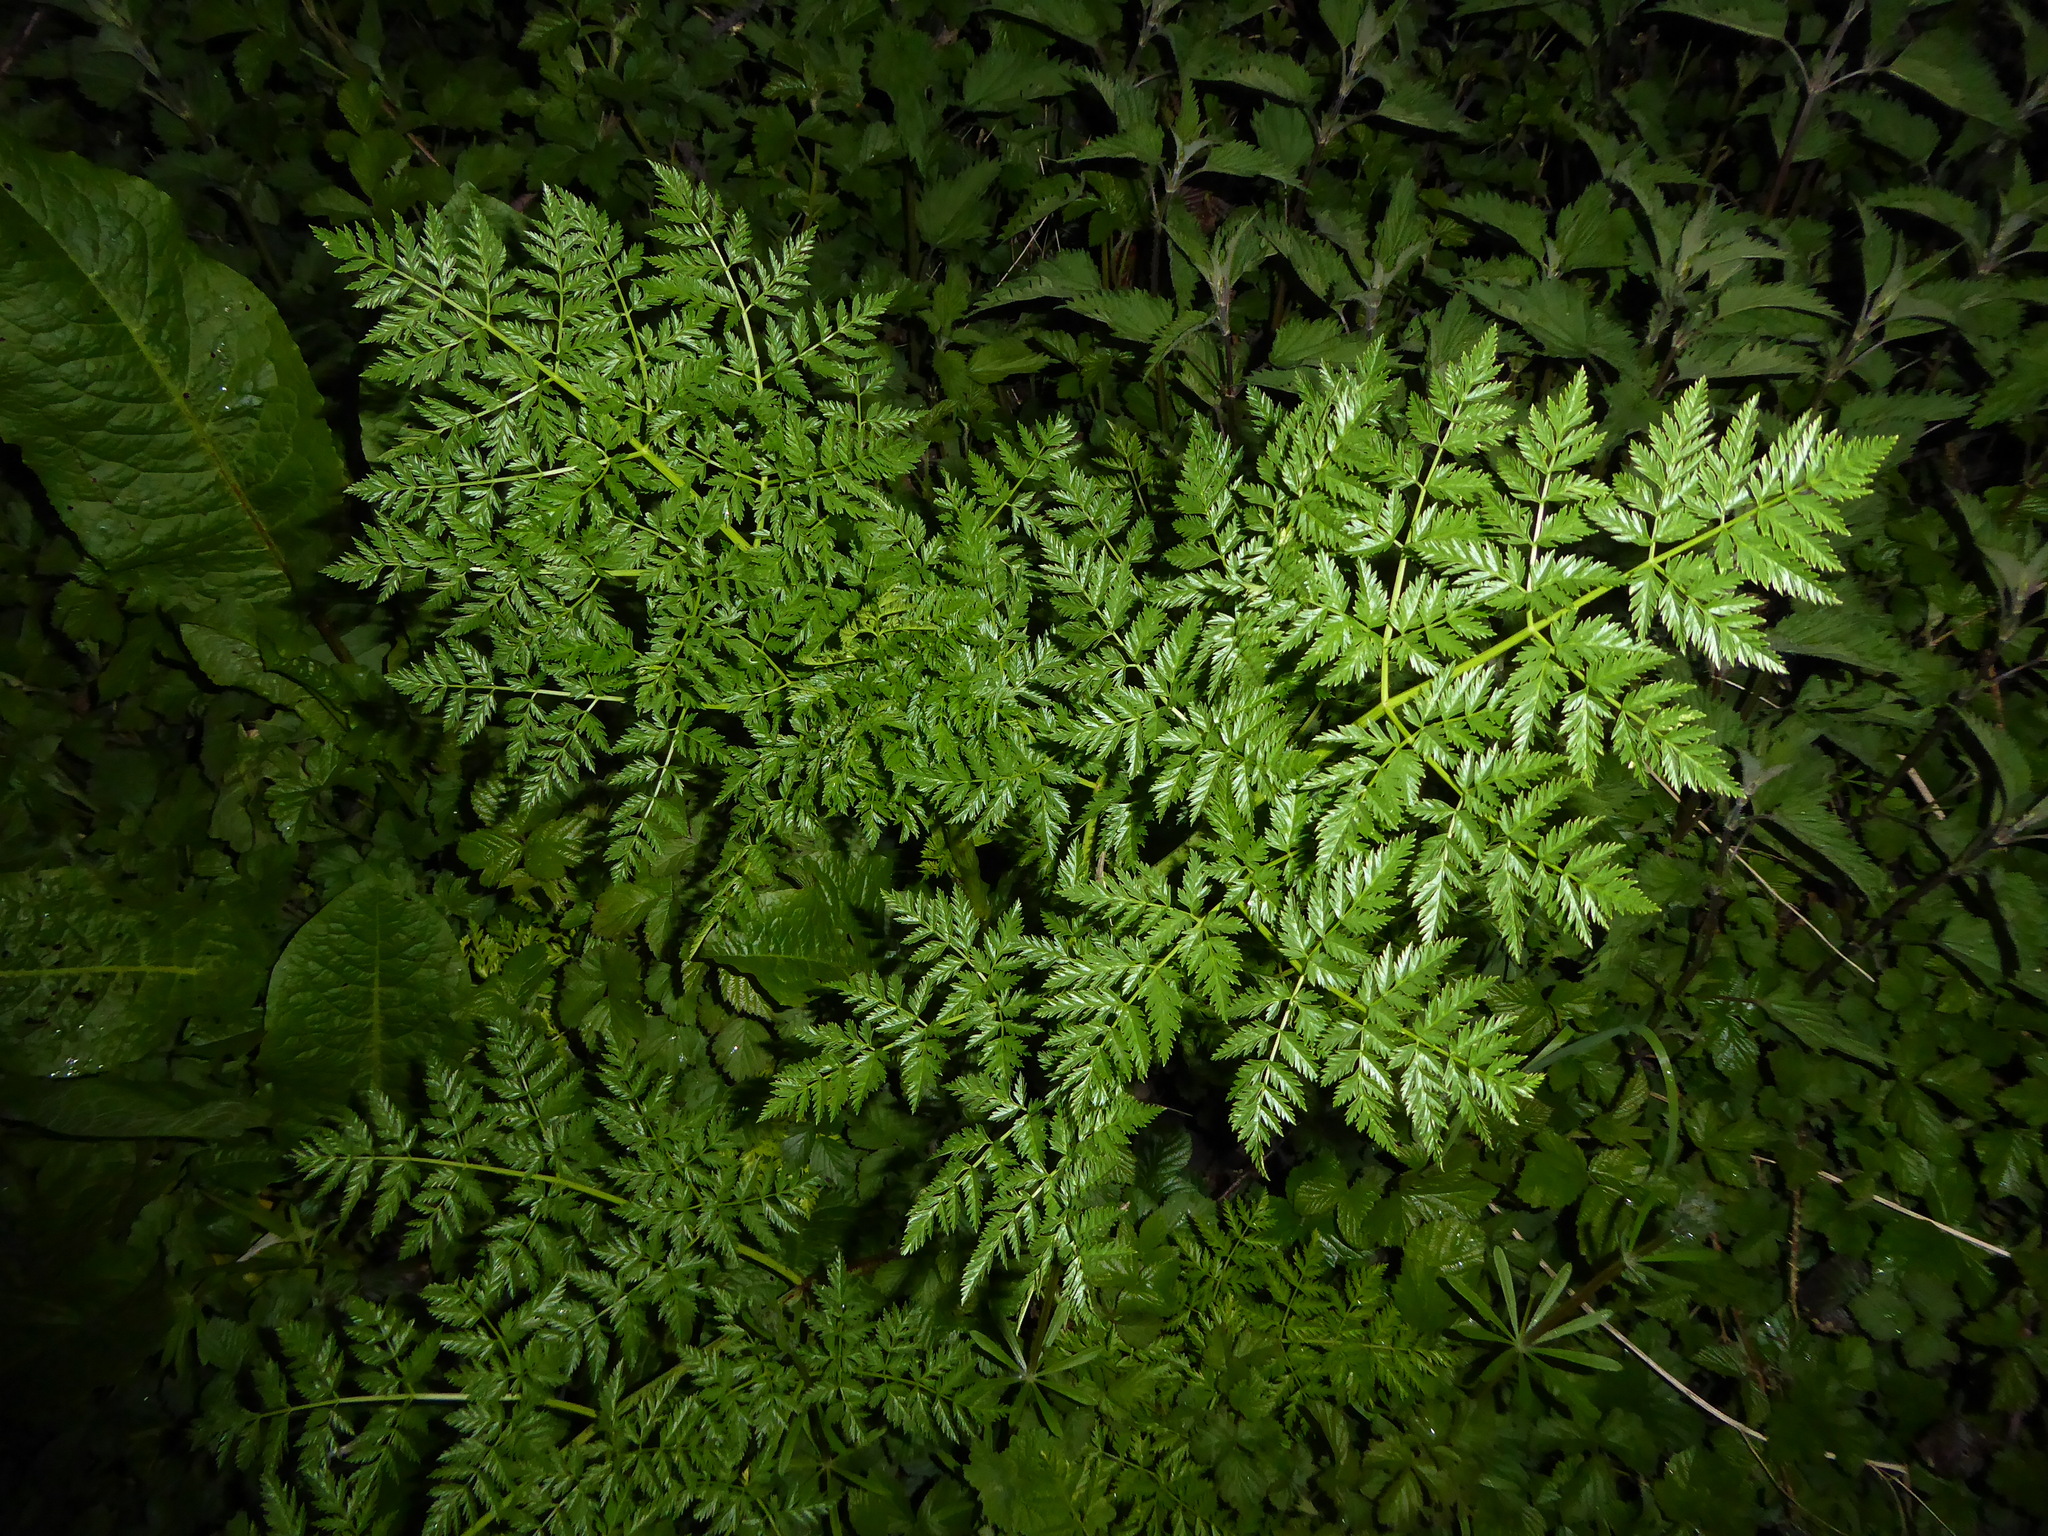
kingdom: Plantae
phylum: Tracheophyta
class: Magnoliopsida
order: Apiales
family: Apiaceae
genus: Conium
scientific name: Conium maculatum
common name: Hemlock
